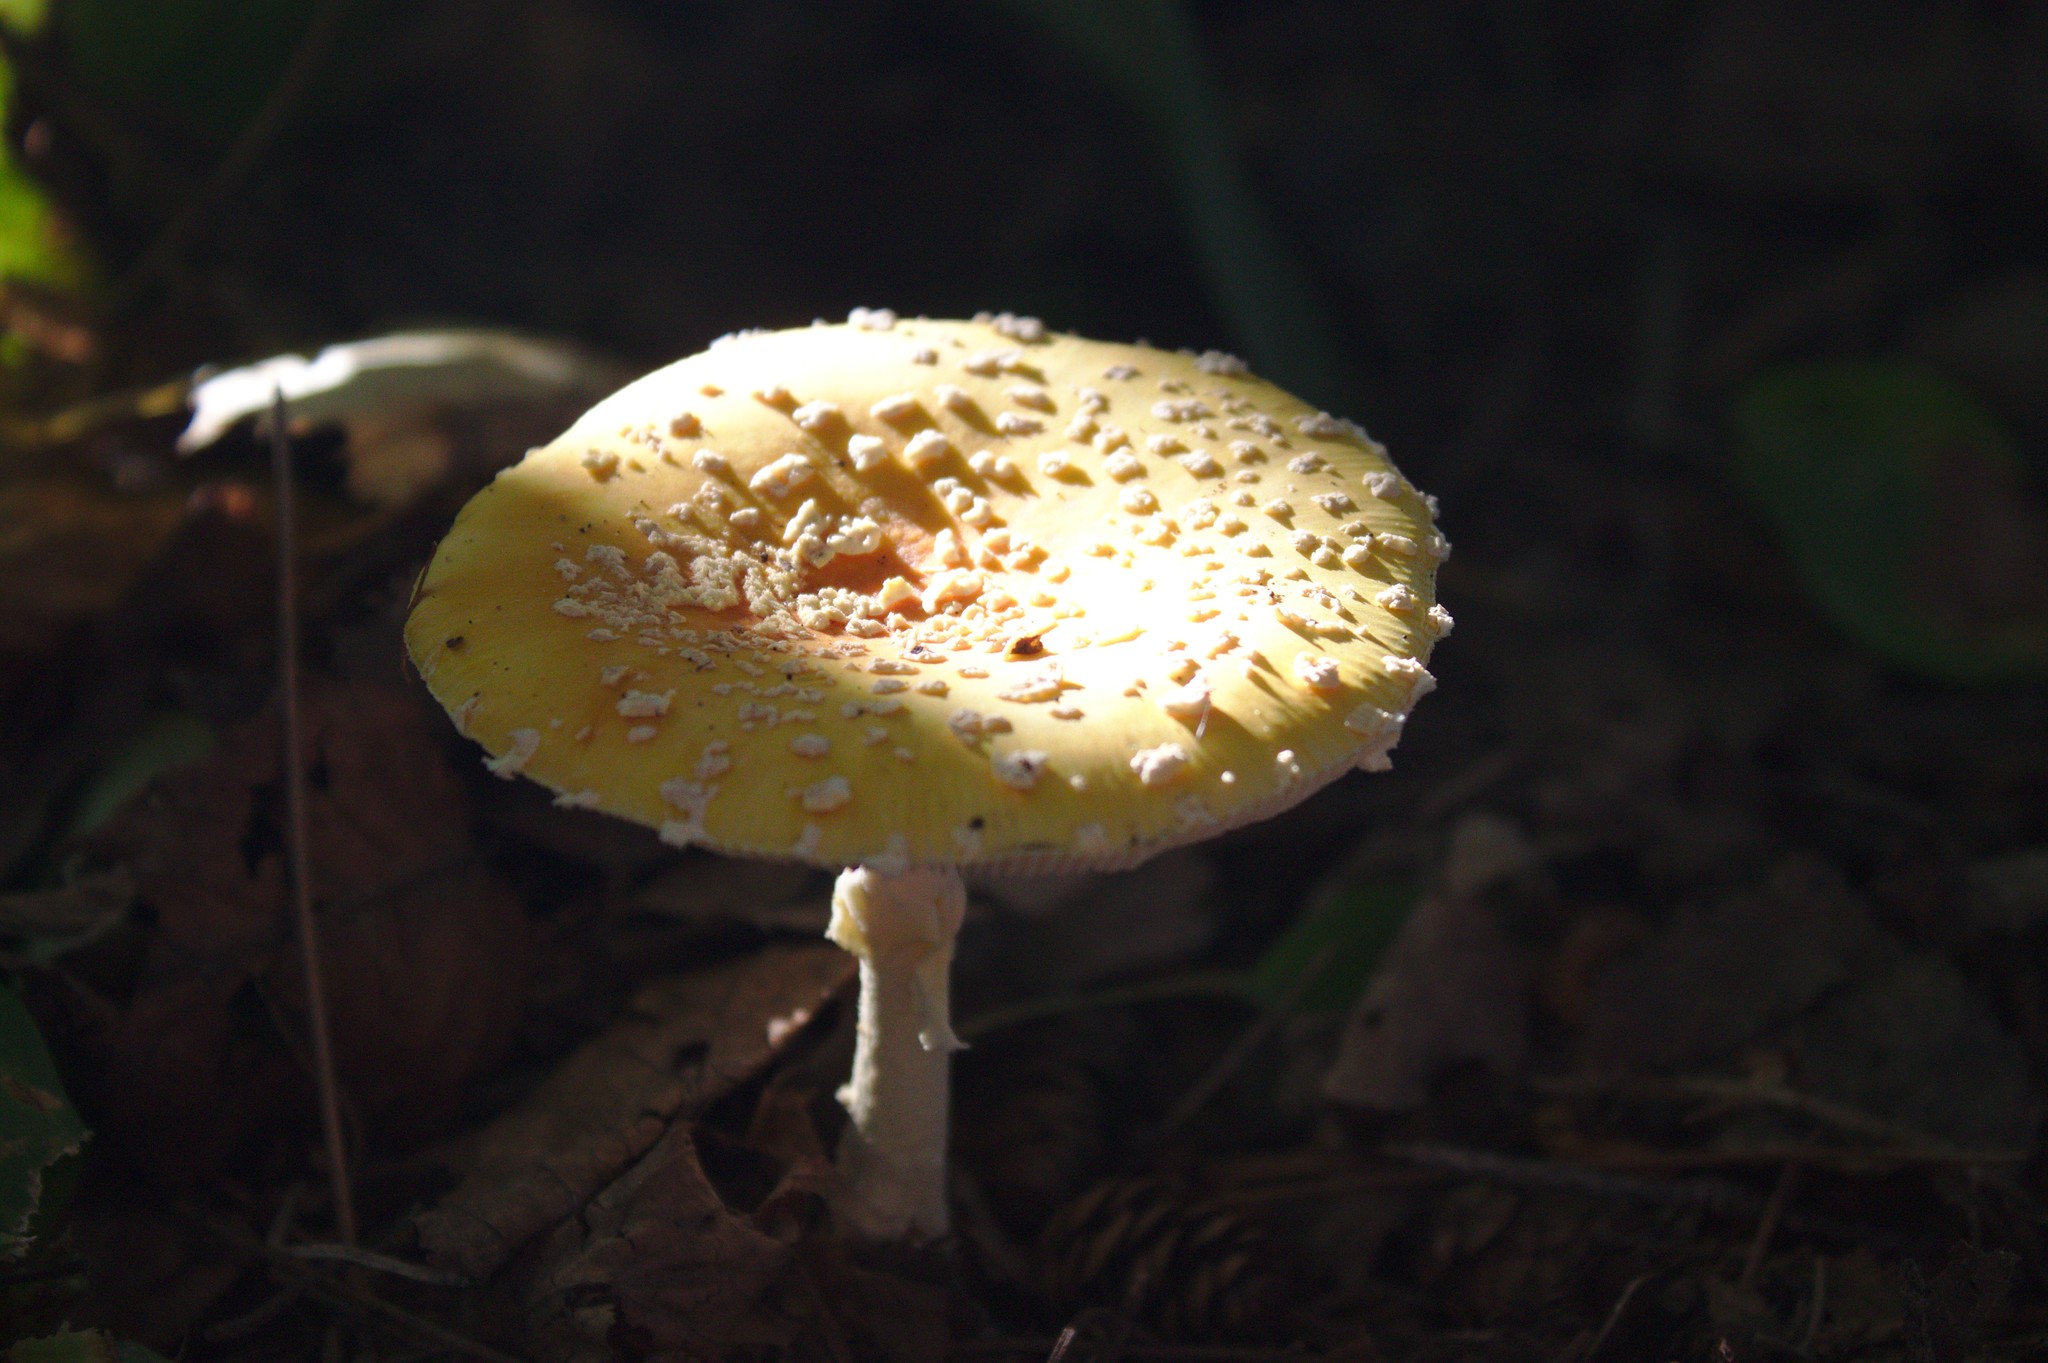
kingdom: Fungi
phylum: Basidiomycota
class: Agaricomycetes
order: Agaricales
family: Amanitaceae
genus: Amanita
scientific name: Amanita frostiana
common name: Frost's amanita
